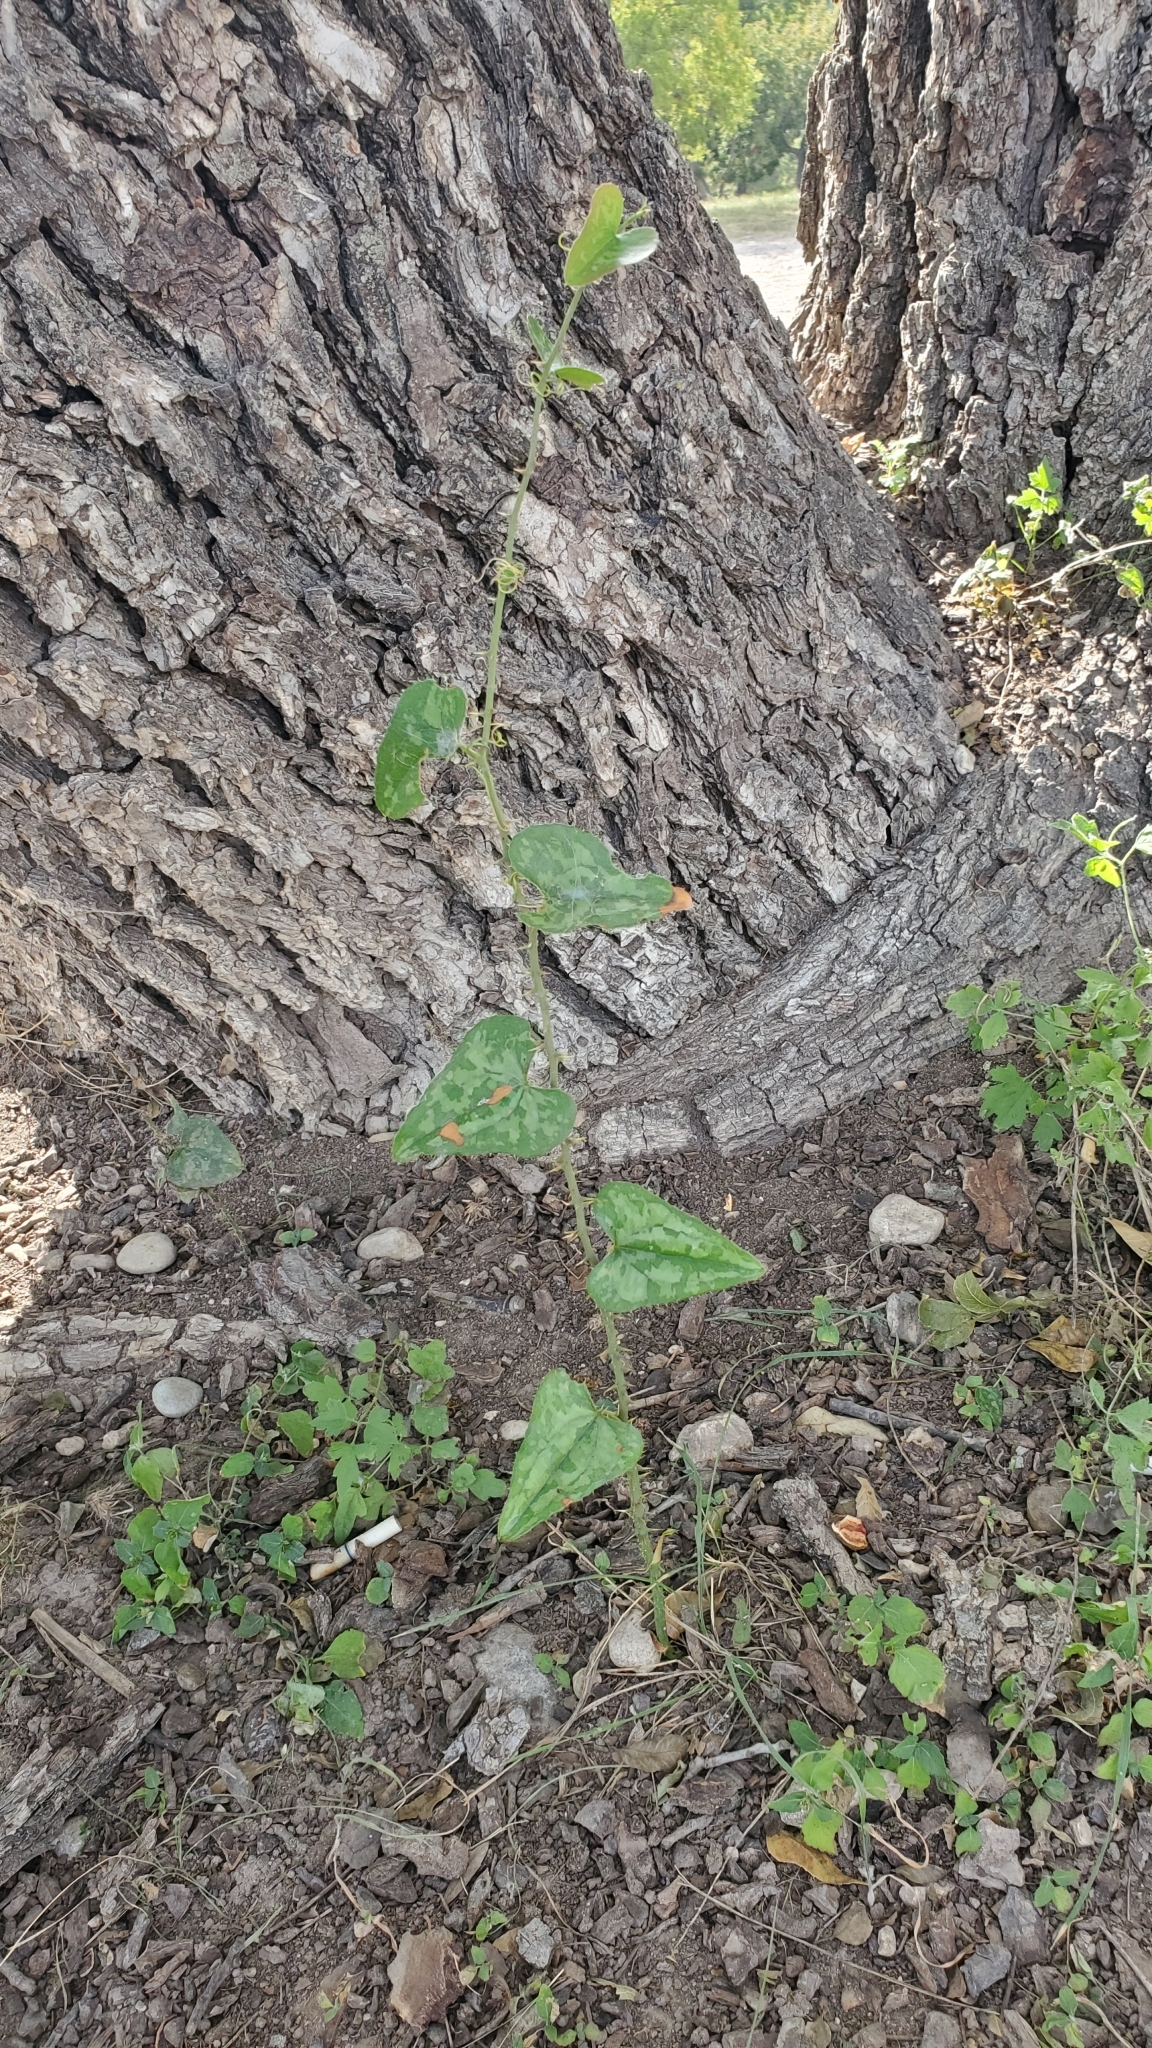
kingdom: Plantae
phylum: Tracheophyta
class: Liliopsida
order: Liliales
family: Smilacaceae
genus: Smilax
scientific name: Smilax bona-nox
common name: Catbrier
